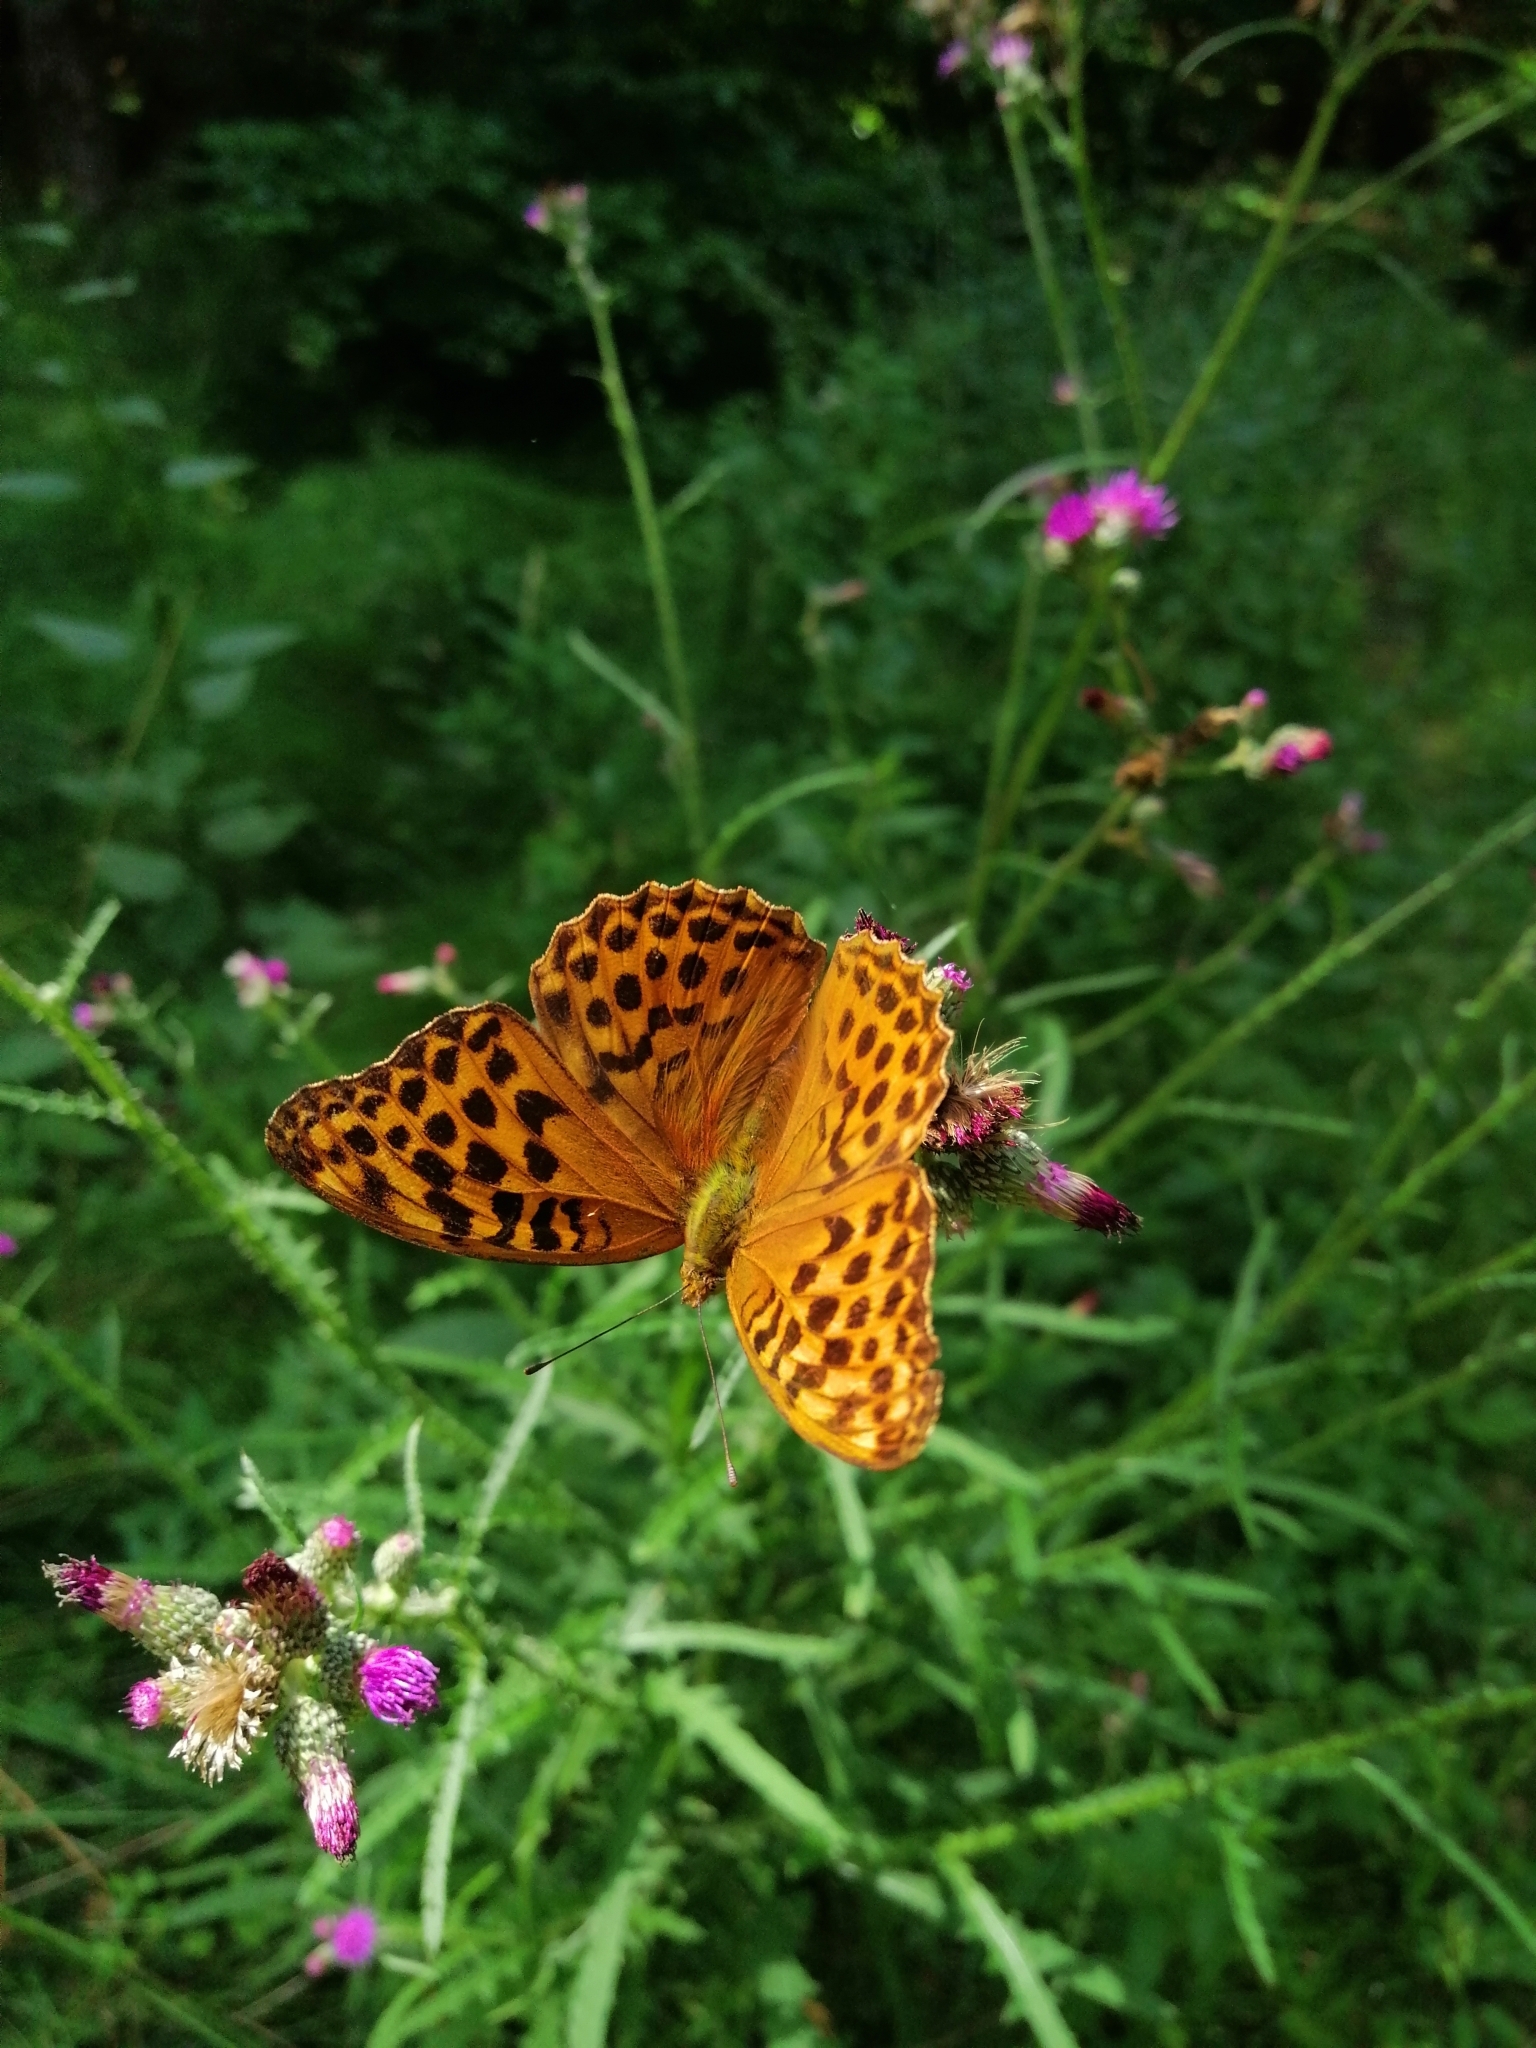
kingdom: Animalia
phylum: Arthropoda
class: Insecta
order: Lepidoptera
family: Nymphalidae
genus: Argynnis
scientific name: Argynnis paphia
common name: Silver-washed fritillary
